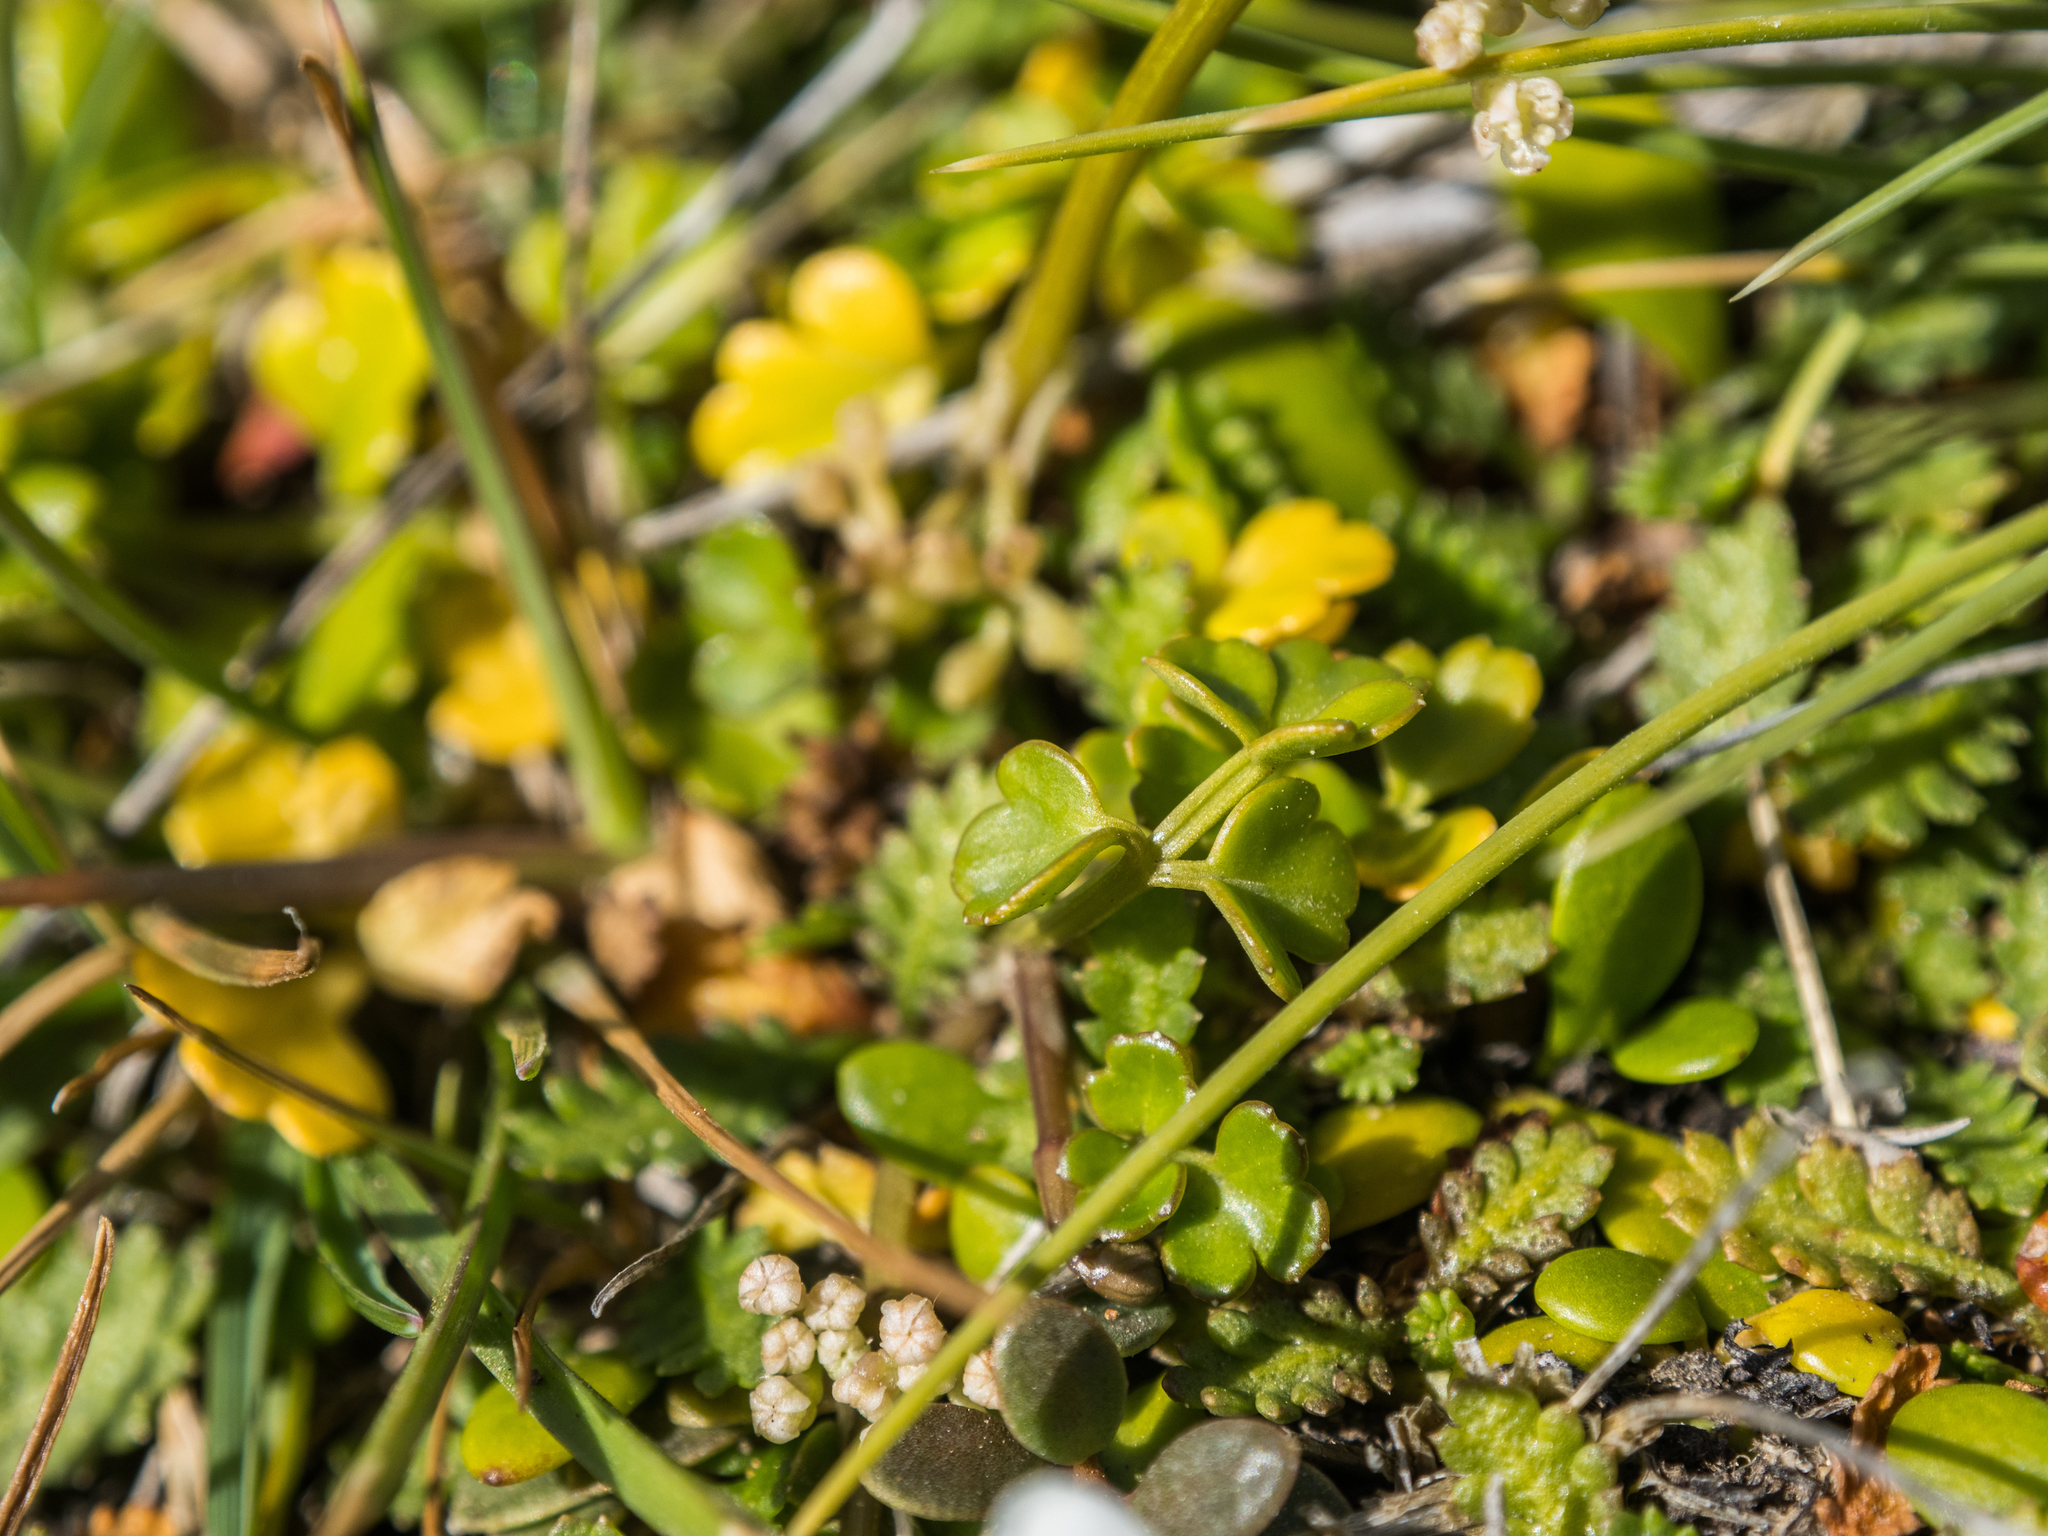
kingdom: Plantae
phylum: Tracheophyta
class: Magnoliopsida
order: Apiales
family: Apiaceae
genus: Apium
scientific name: Apium prostratum
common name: Prostrate marshwort
